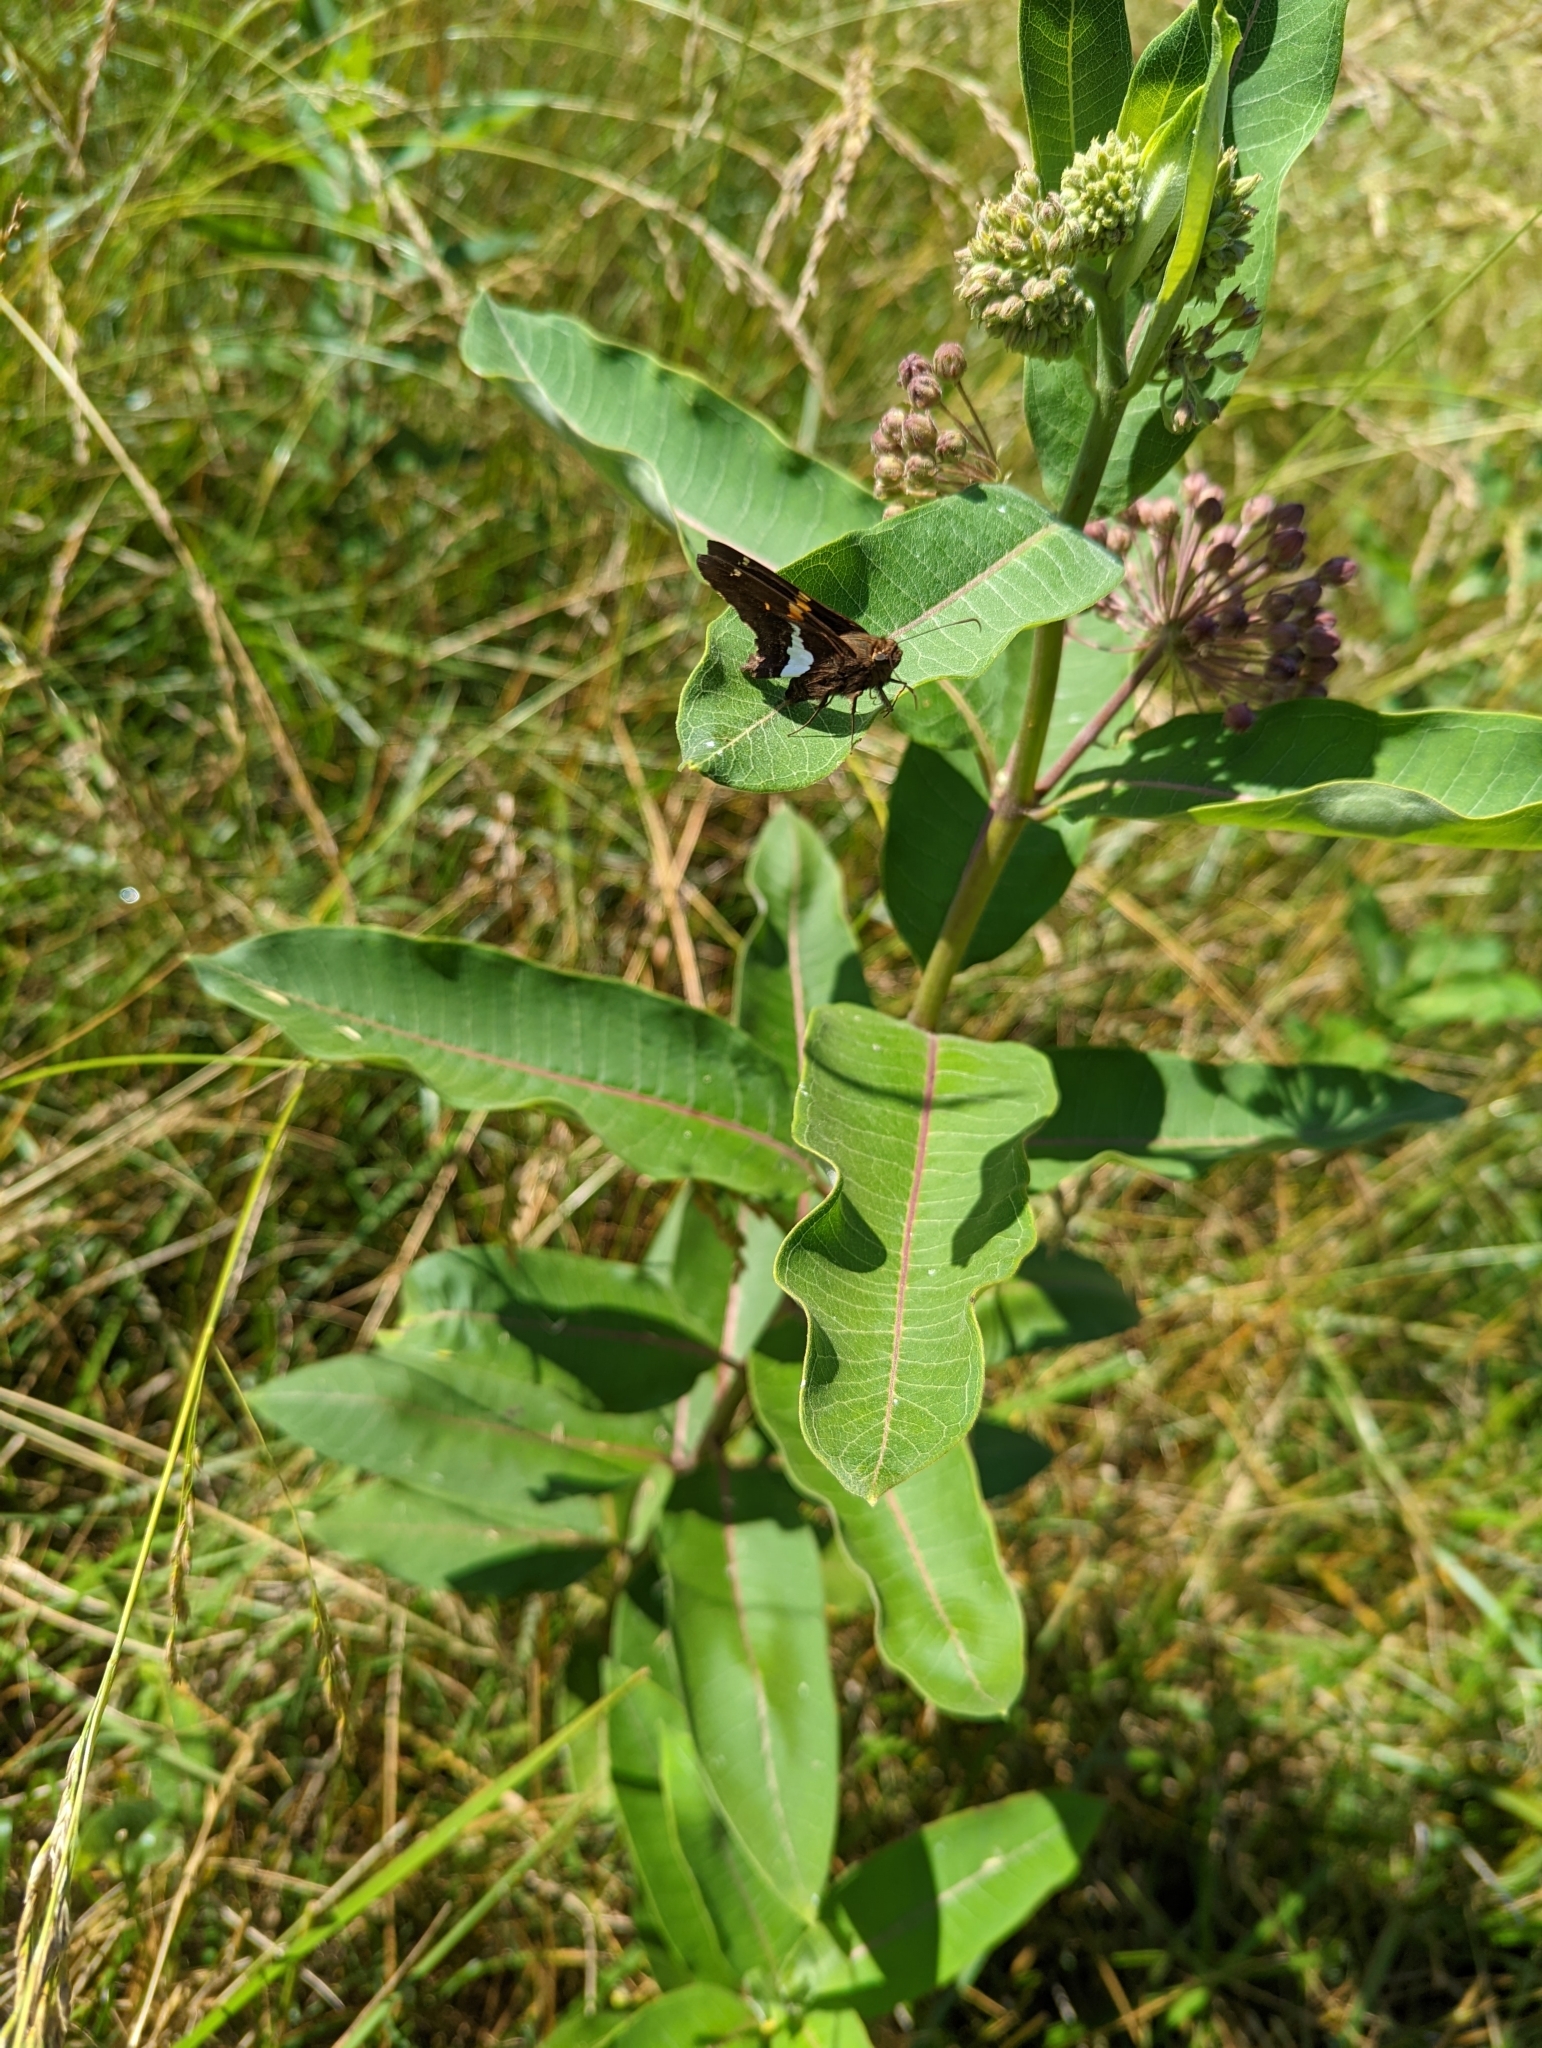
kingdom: Plantae
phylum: Tracheophyta
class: Magnoliopsida
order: Gentianales
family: Apocynaceae
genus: Asclepias
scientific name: Asclepias syriaca
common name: Common milkweed
